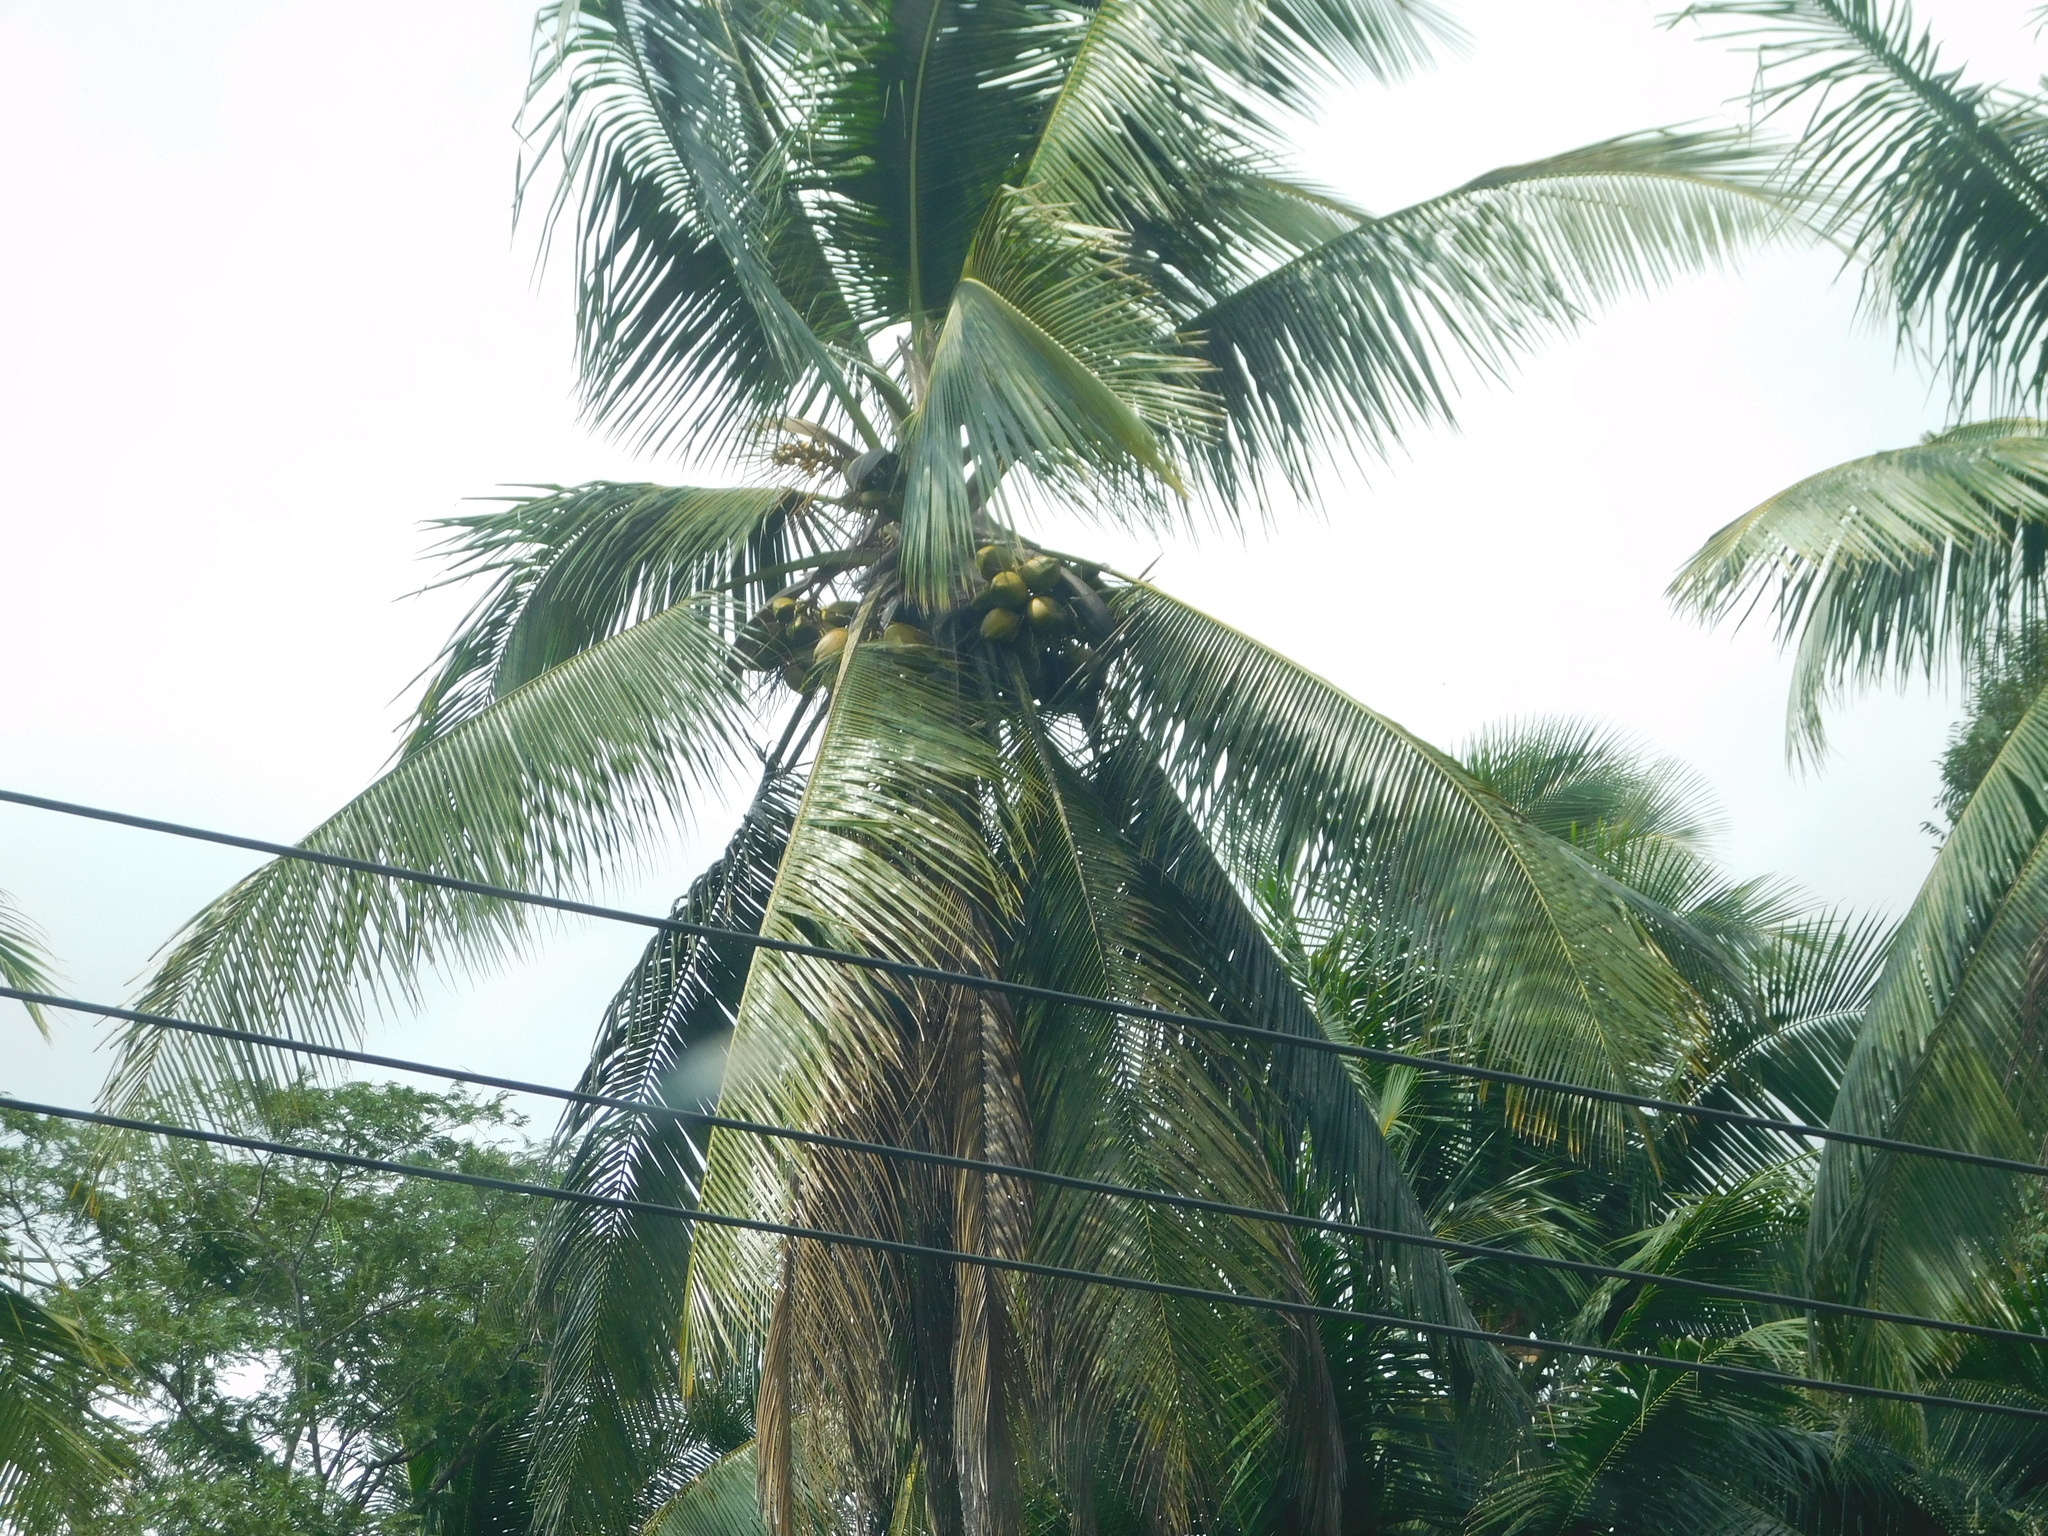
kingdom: Plantae
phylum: Tracheophyta
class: Liliopsida
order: Arecales
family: Arecaceae
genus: Cocos
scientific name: Cocos nucifera
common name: Coconut palm
